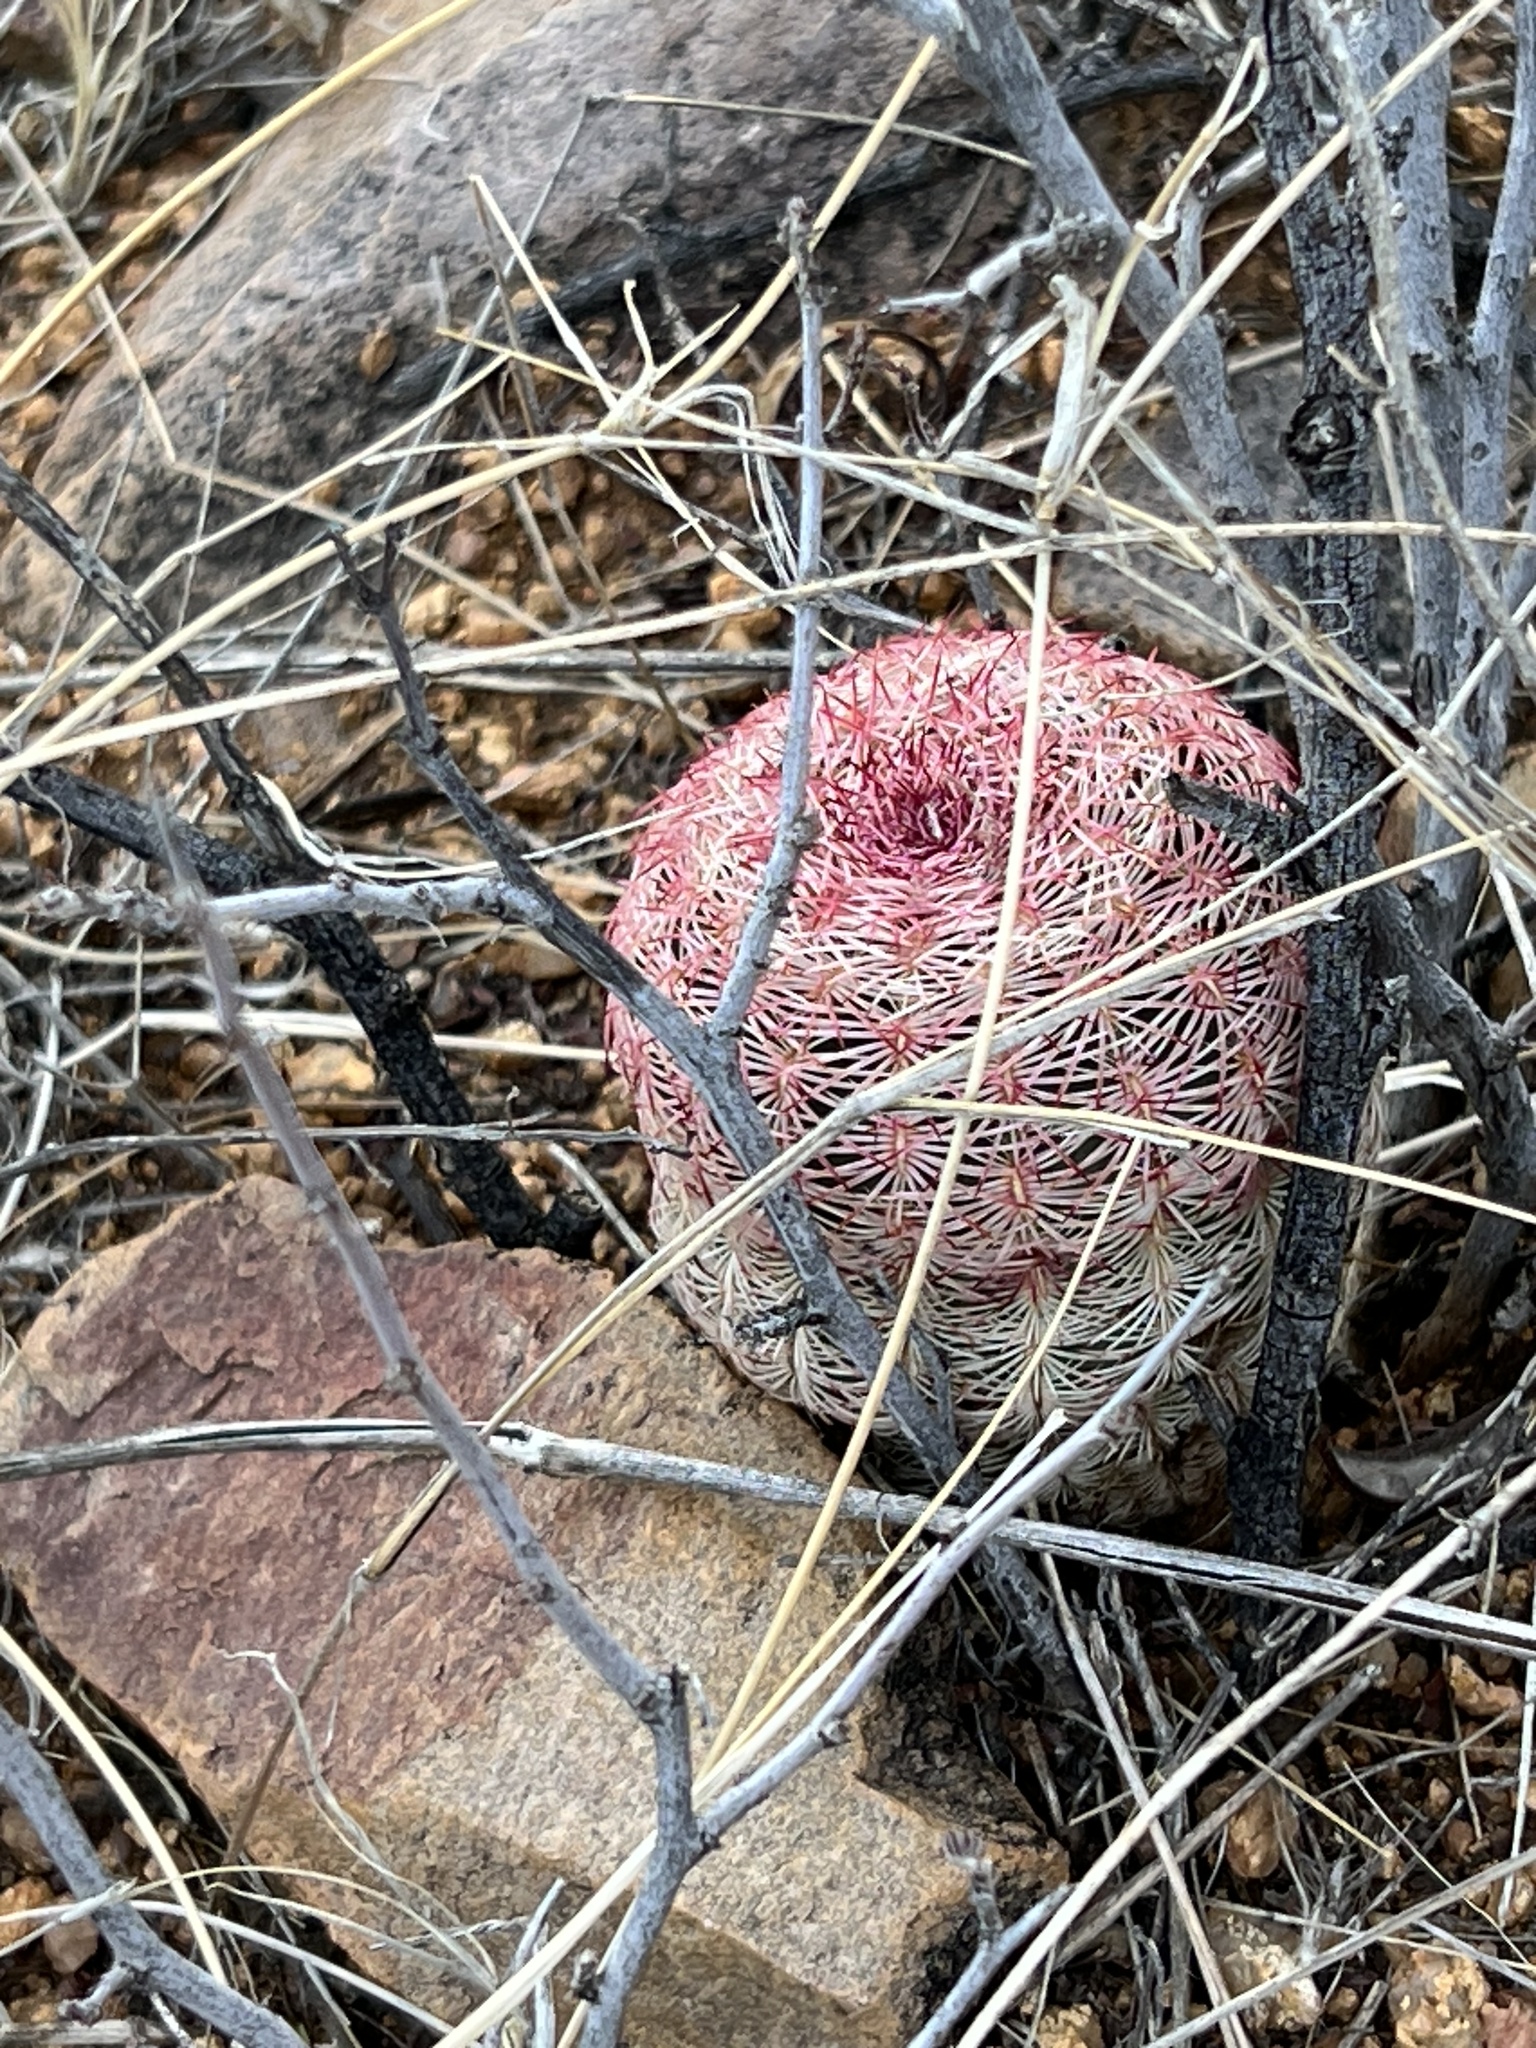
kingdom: Plantae
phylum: Tracheophyta
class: Magnoliopsida
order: Caryophyllales
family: Cactaceae
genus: Echinocereus
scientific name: Echinocereus rigidissimus
